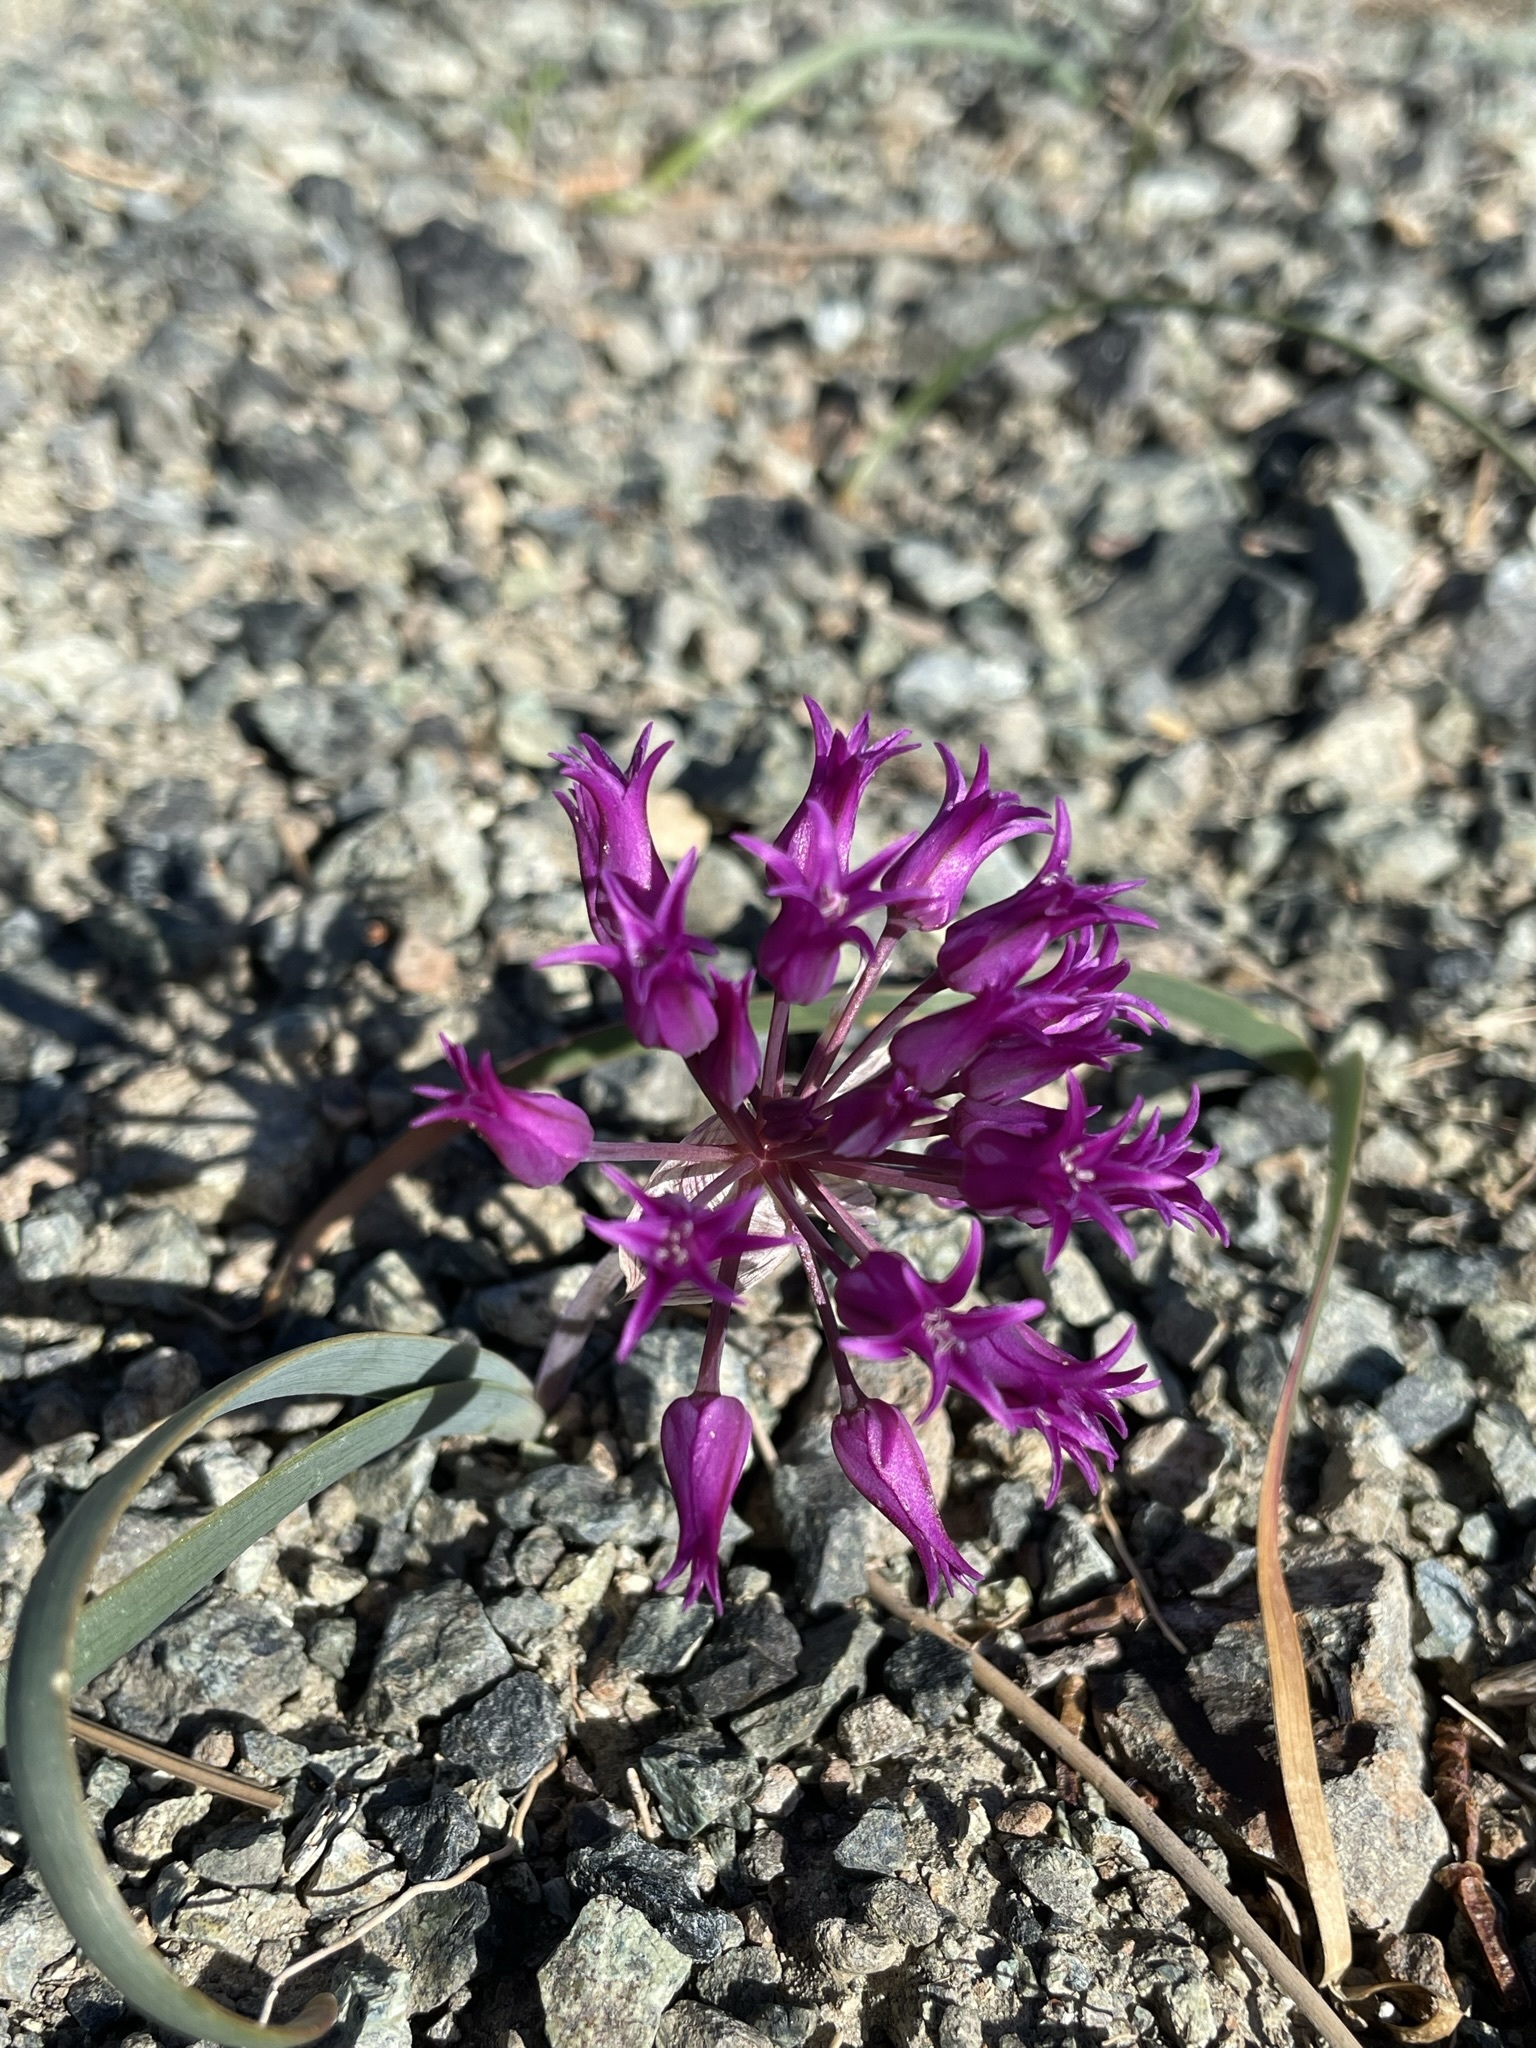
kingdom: Plantae
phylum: Tracheophyta
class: Liliopsida
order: Asparagales
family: Amaryllidaceae
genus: Allium
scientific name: Allium falcifolium
